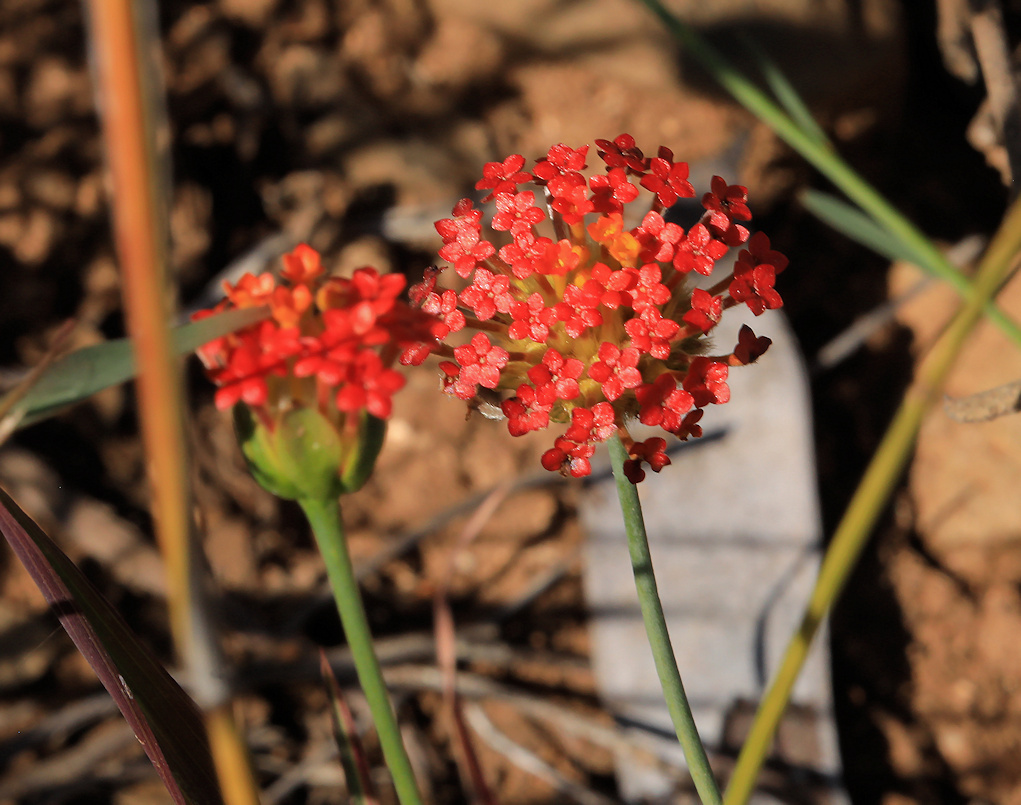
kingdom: Plantae
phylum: Tracheophyta
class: Magnoliopsida
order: Malvales
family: Thymelaeaceae
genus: Gnidia
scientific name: Gnidia rubescens
